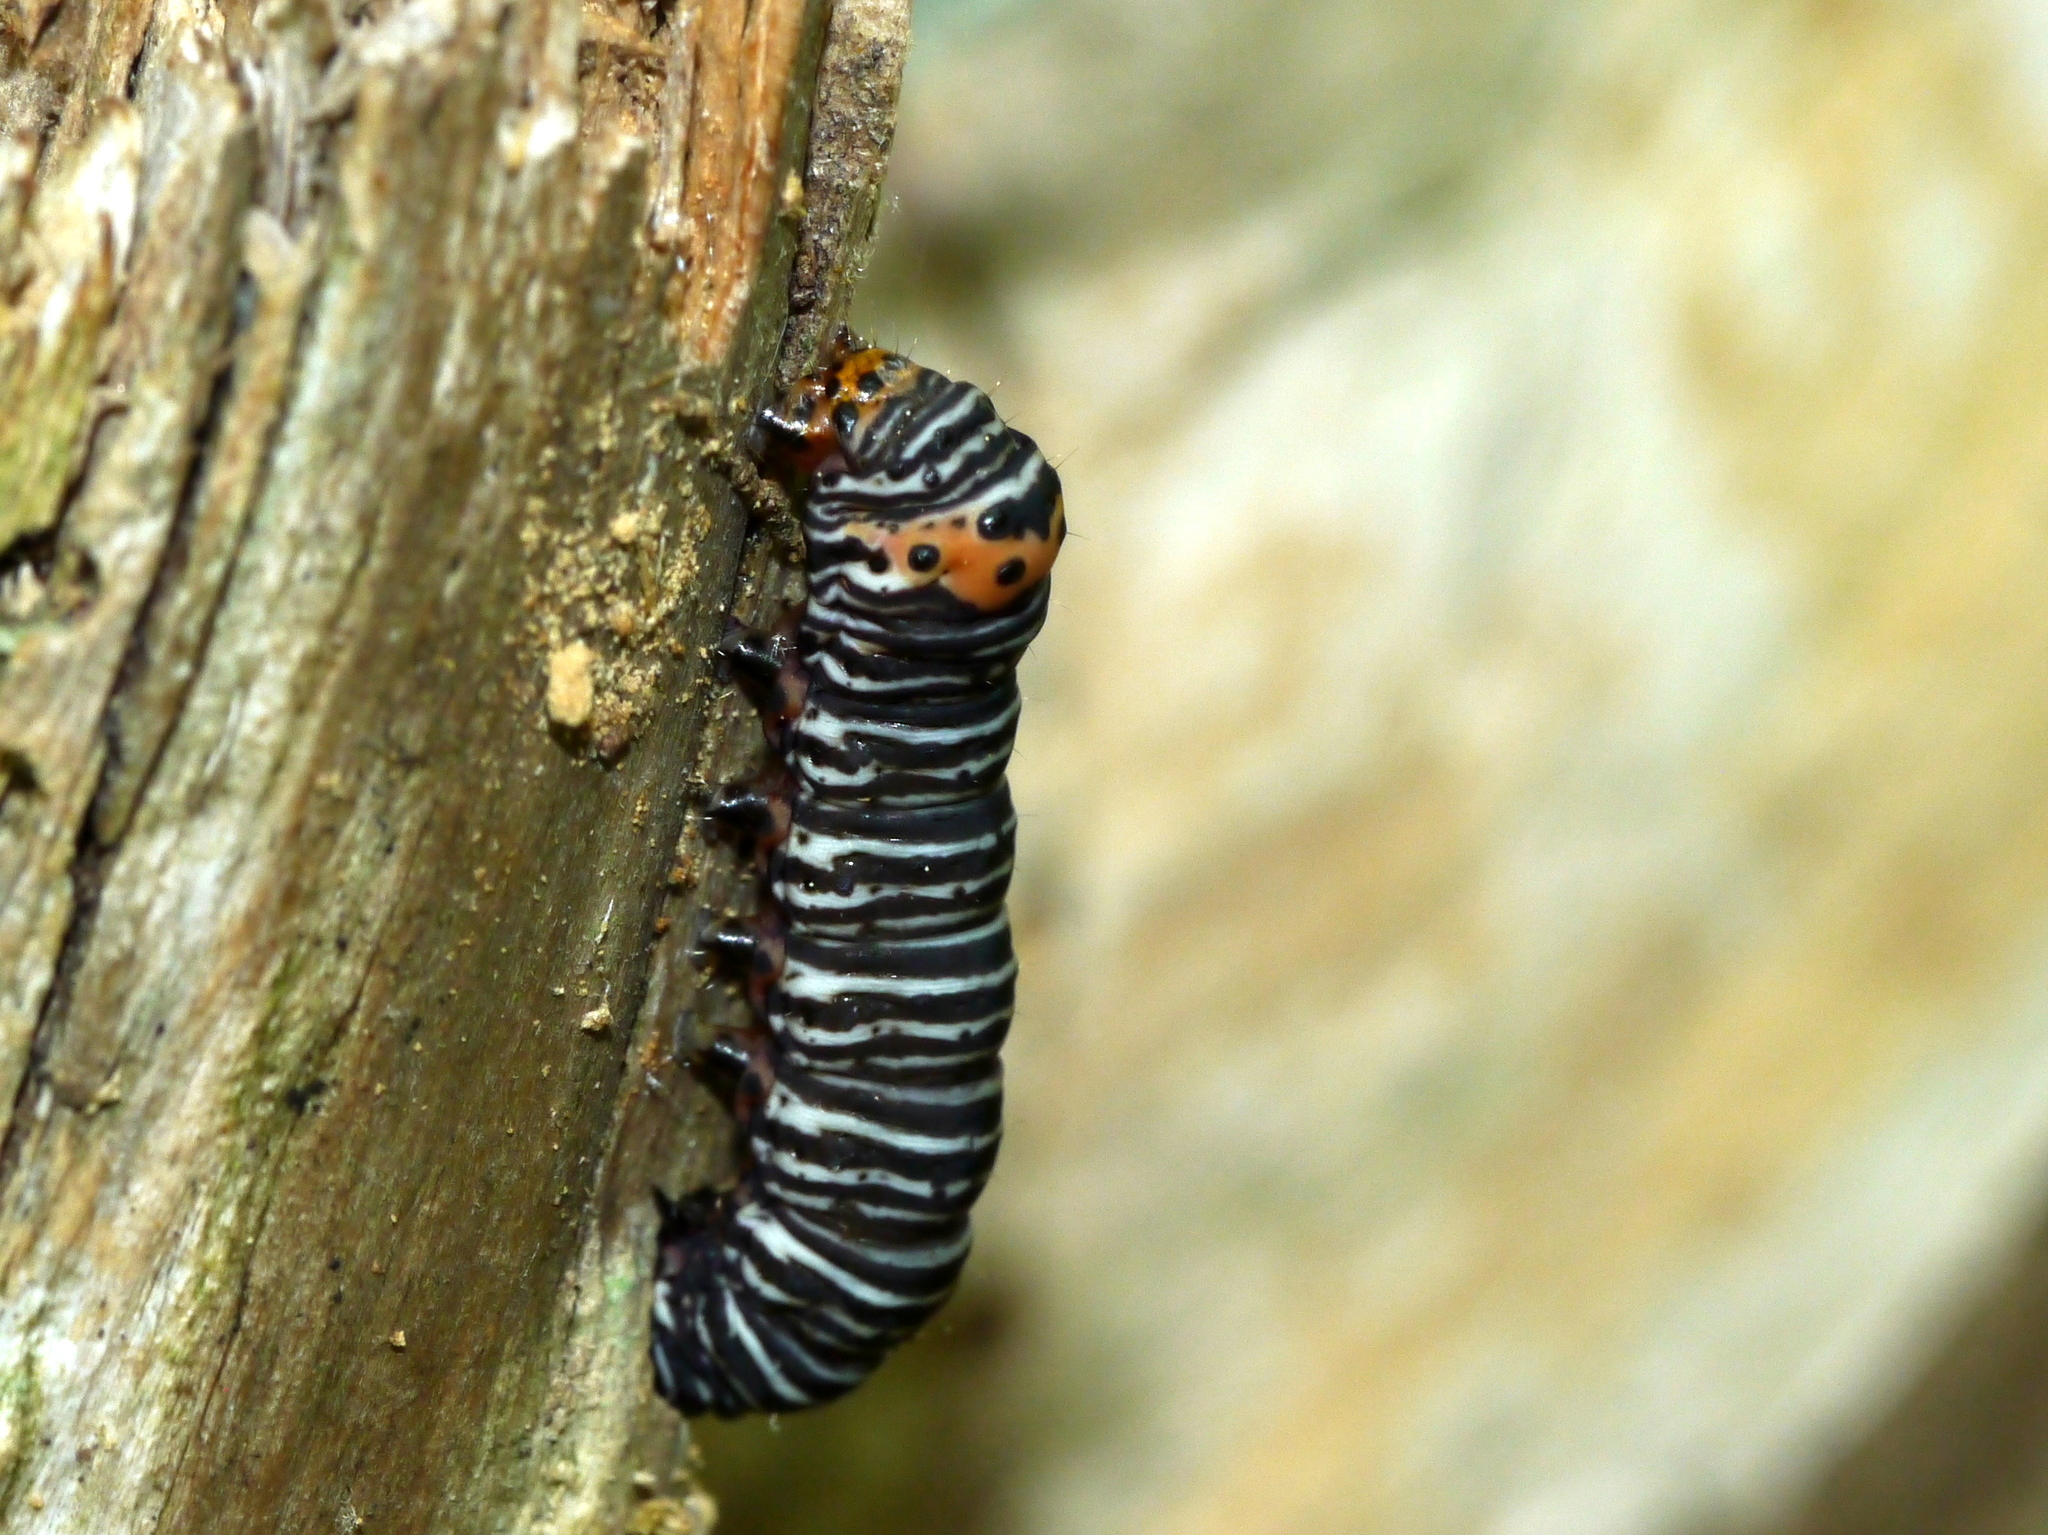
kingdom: Animalia
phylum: Arthropoda
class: Insecta
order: Lepidoptera
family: Noctuidae
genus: Psychomorpha
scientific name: Psychomorpha epimenis
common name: Grapevine epimenis moth
